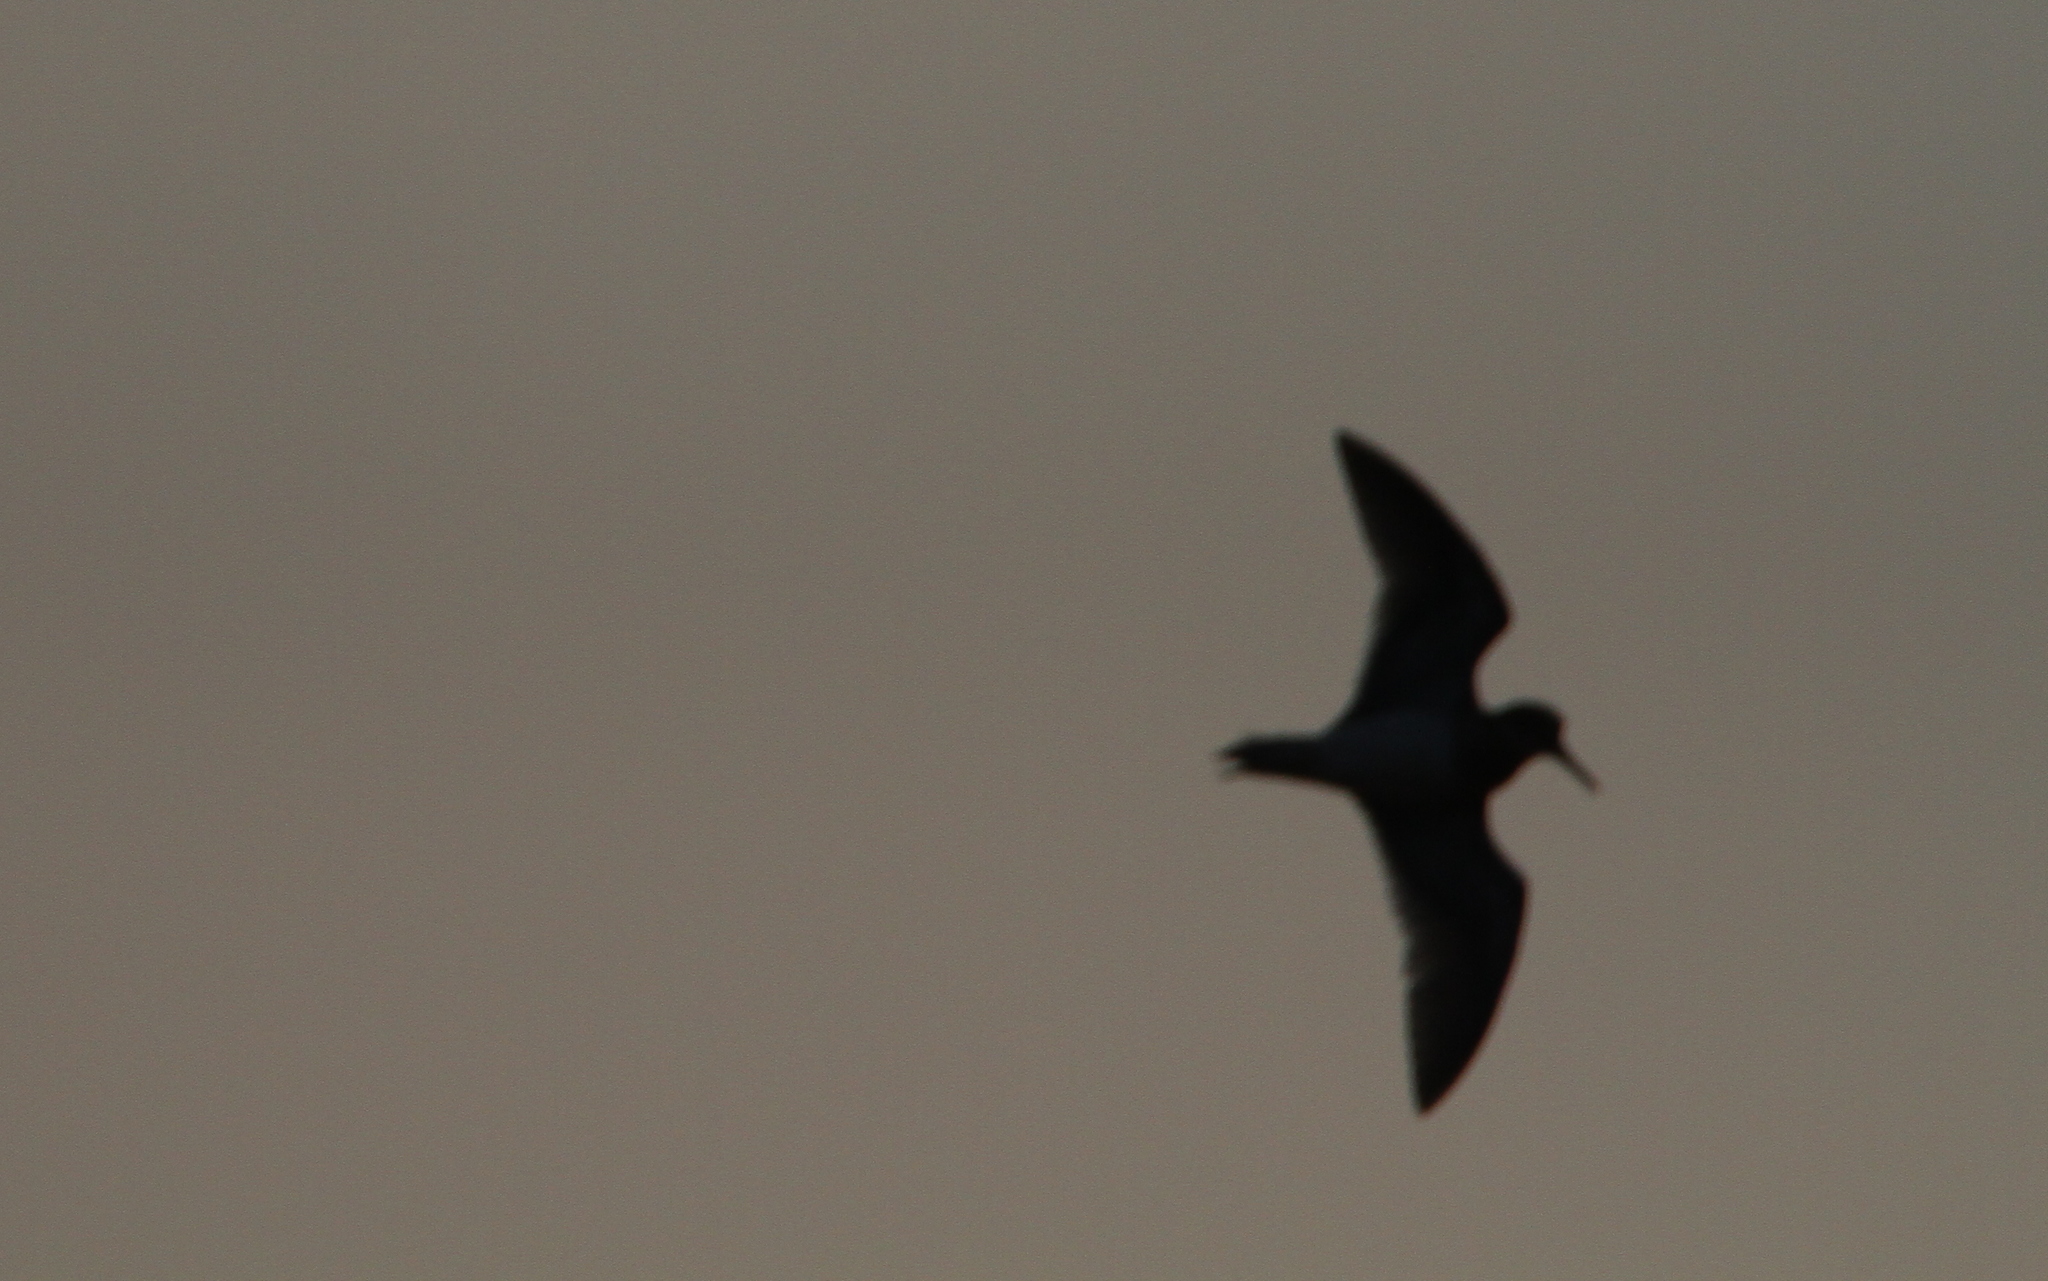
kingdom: Animalia
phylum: Chordata
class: Aves
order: Charadriiformes
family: Scolopacidae
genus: Lymnocryptes
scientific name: Lymnocryptes minimus
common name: Jack snipe
